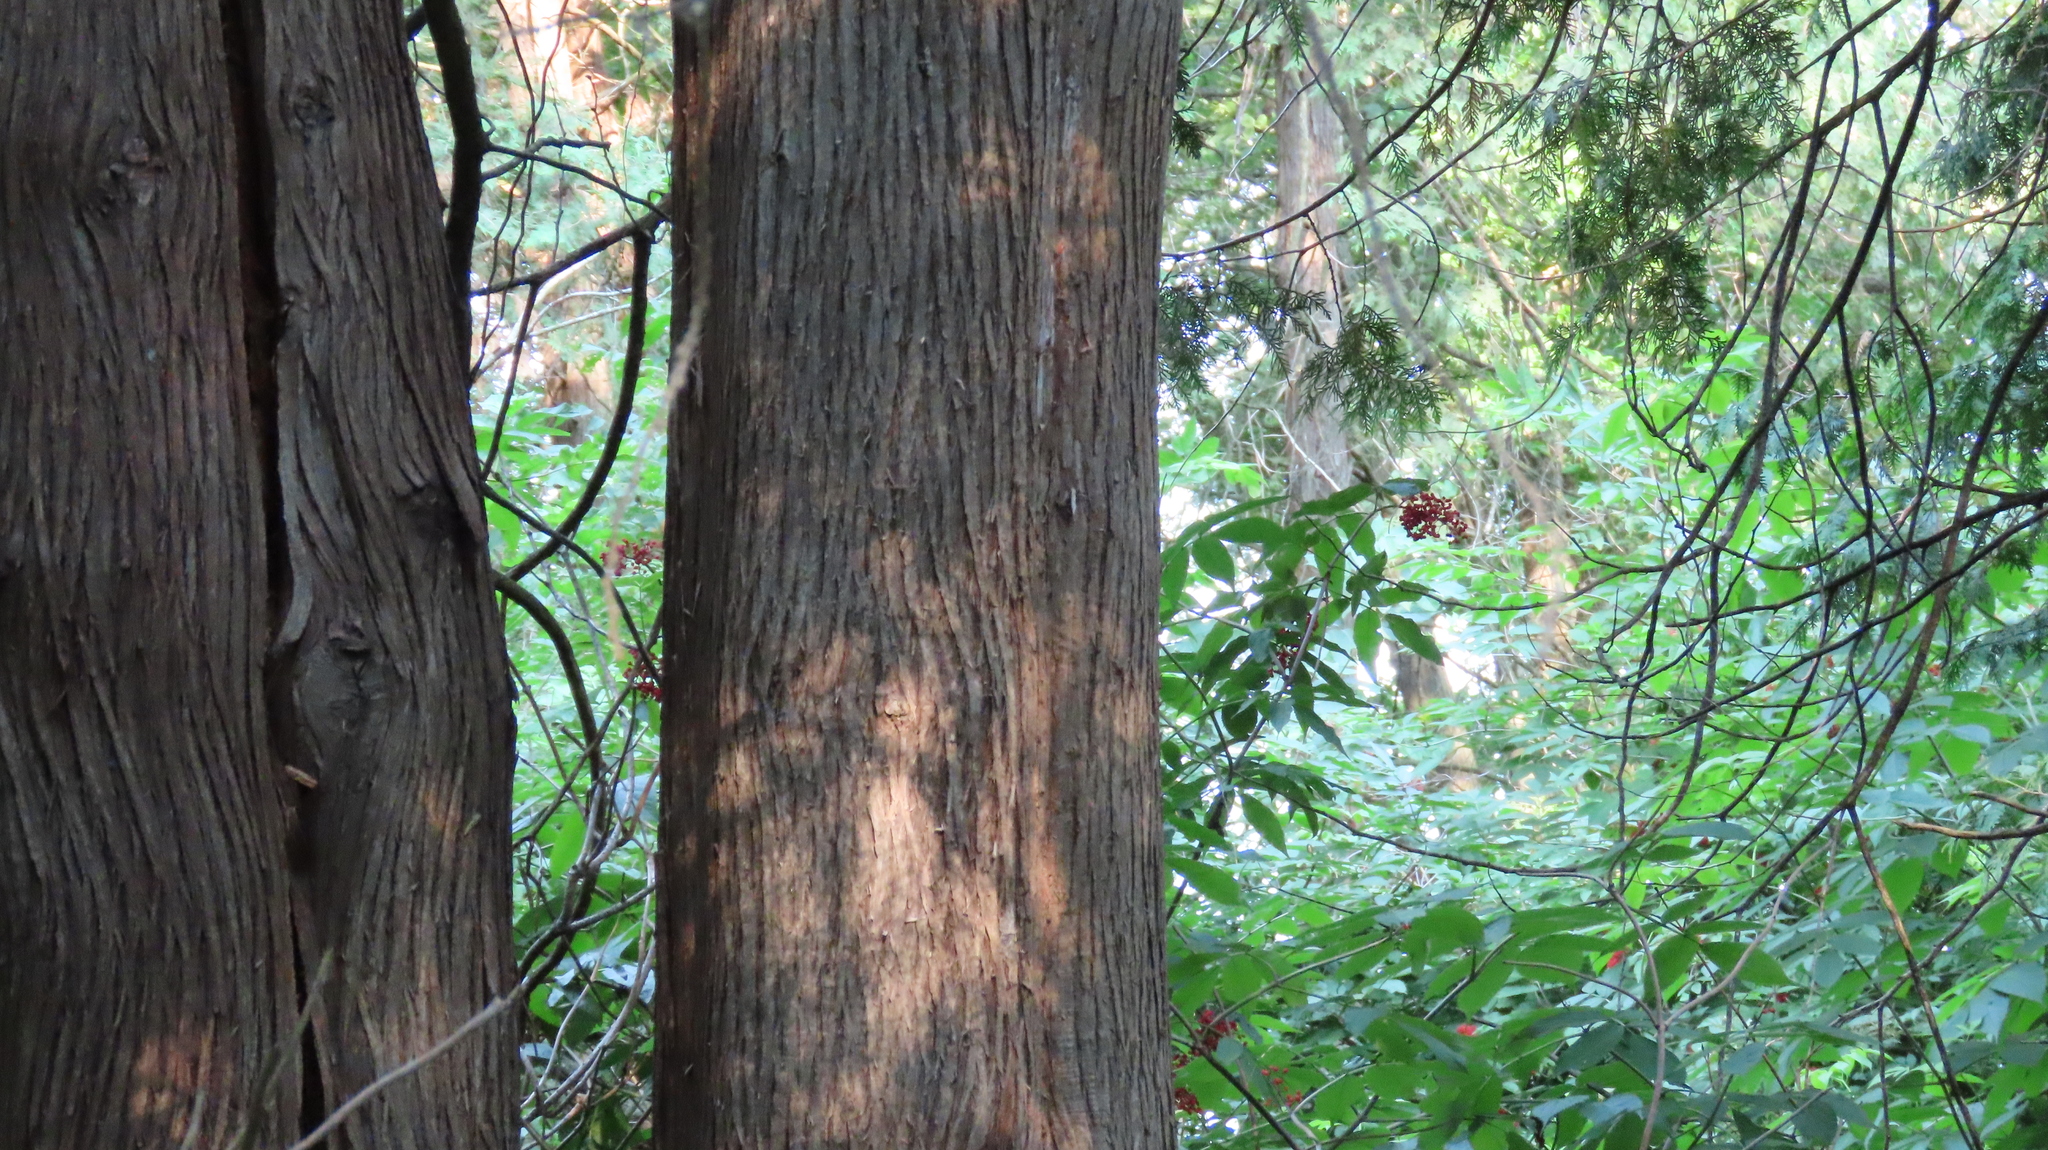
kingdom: Plantae
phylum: Tracheophyta
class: Pinopsida
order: Pinales
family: Cupressaceae
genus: Thuja
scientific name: Thuja occidentalis
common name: Northern white-cedar
